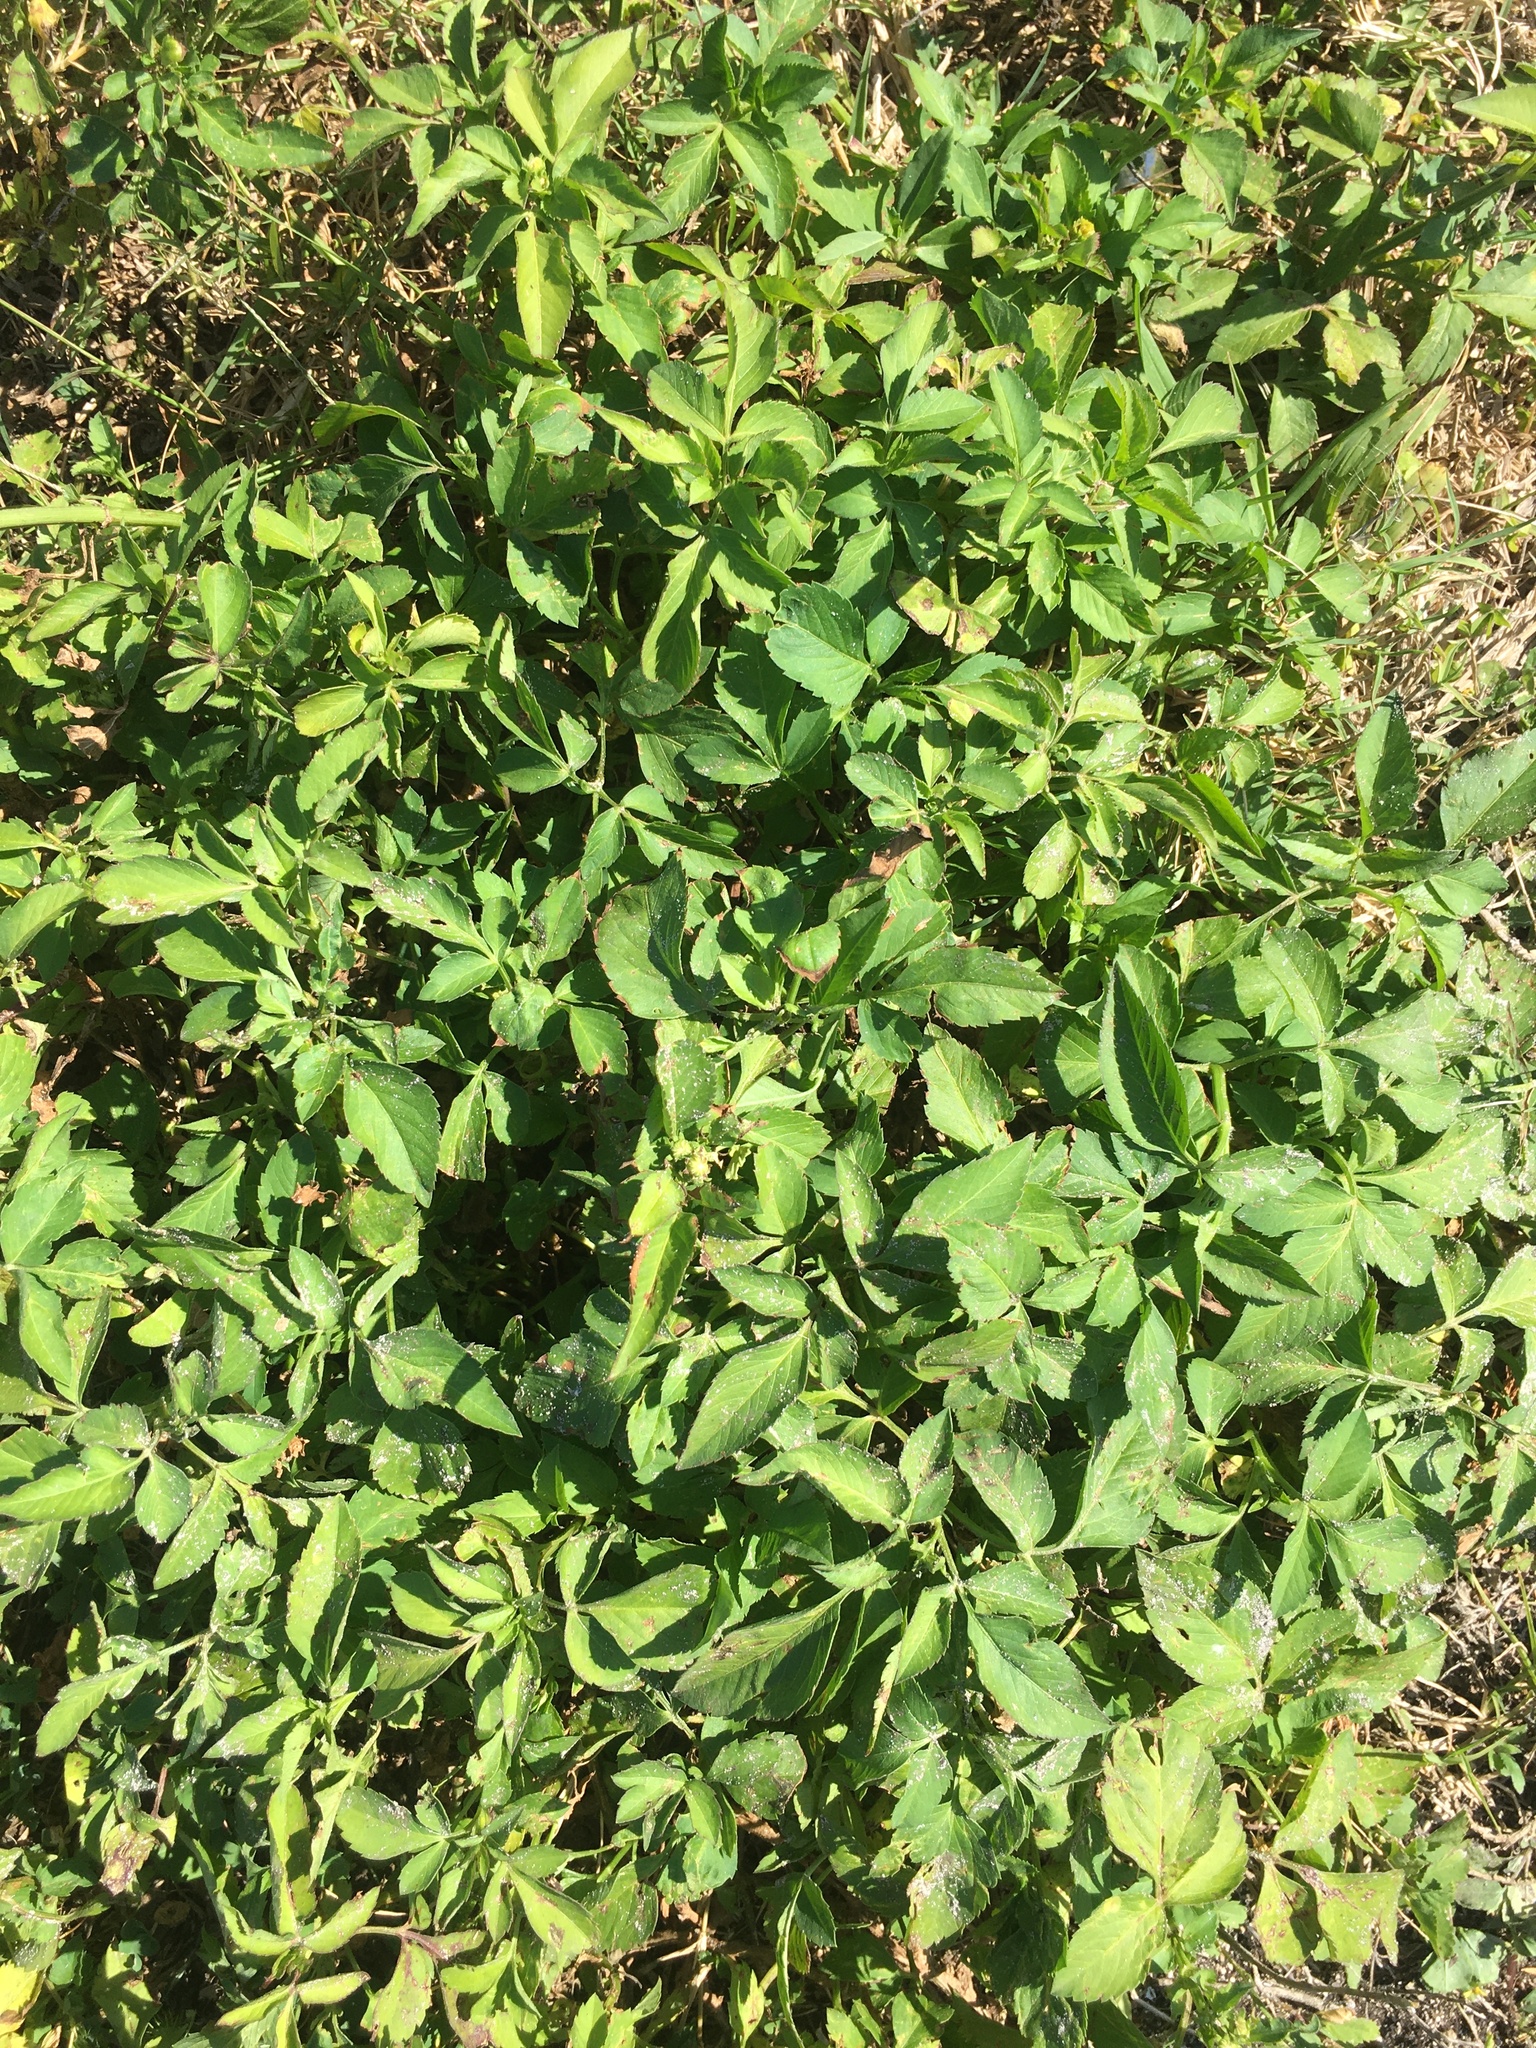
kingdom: Plantae
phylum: Tracheophyta
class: Magnoliopsida
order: Asterales
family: Asteraceae
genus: Bidens
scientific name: Bidens alba
